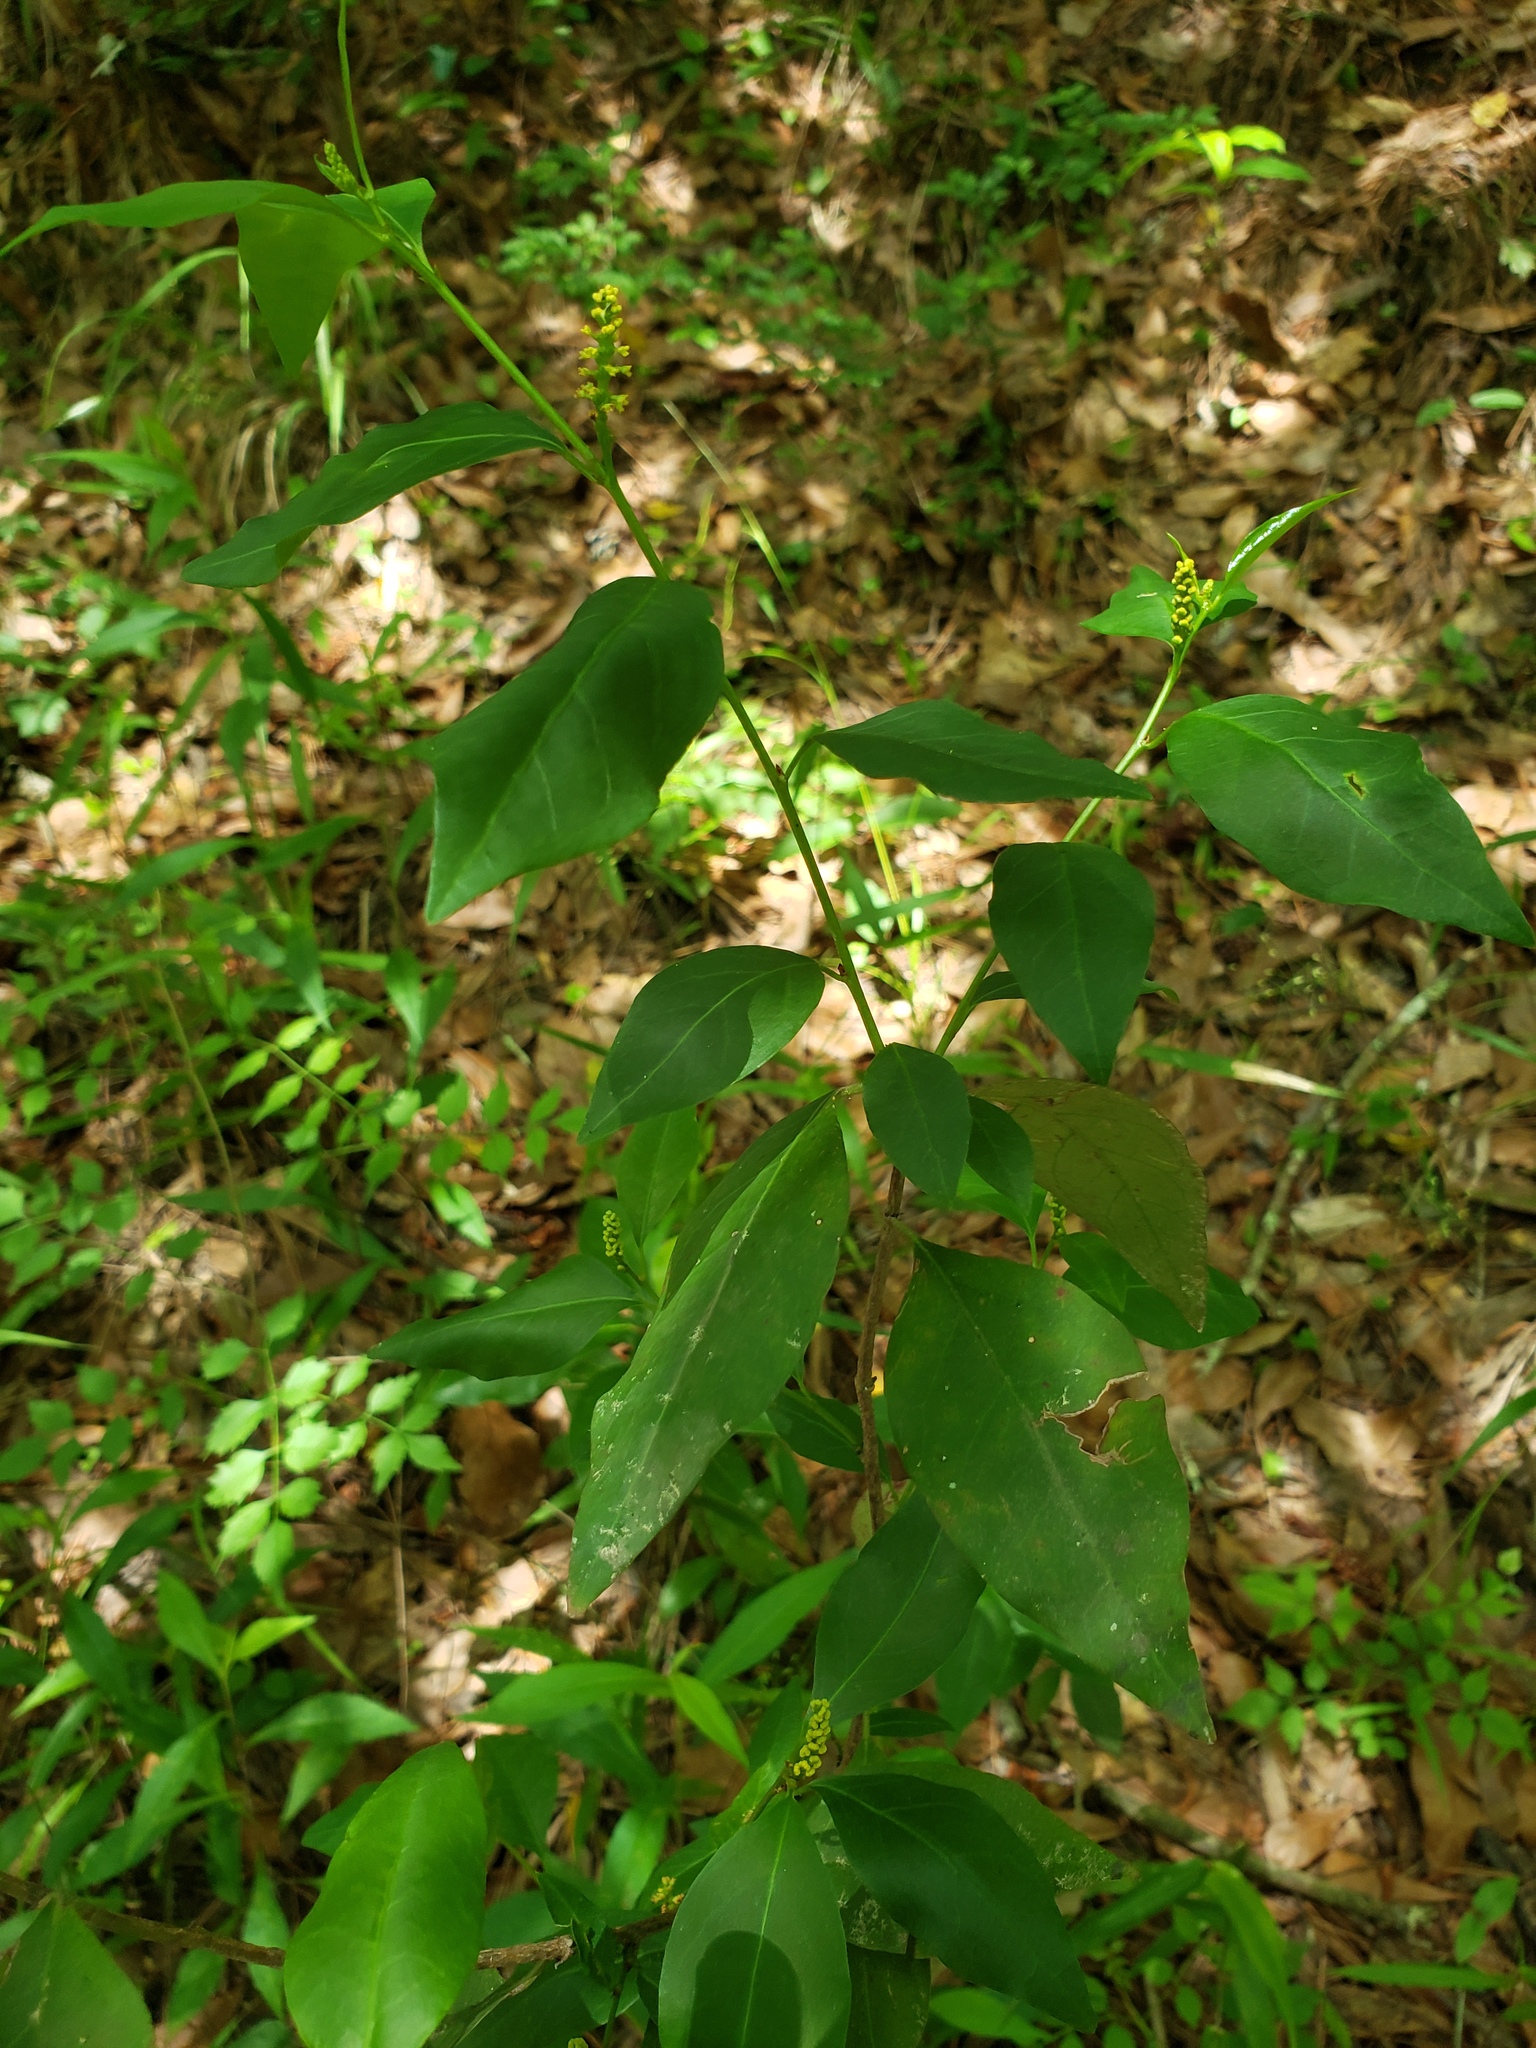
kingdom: Plantae
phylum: Tracheophyta
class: Magnoliopsida
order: Malpighiales
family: Euphorbiaceae
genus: Ditrysinia
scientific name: Ditrysinia fruticosa
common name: Gulf sebastian-bush
